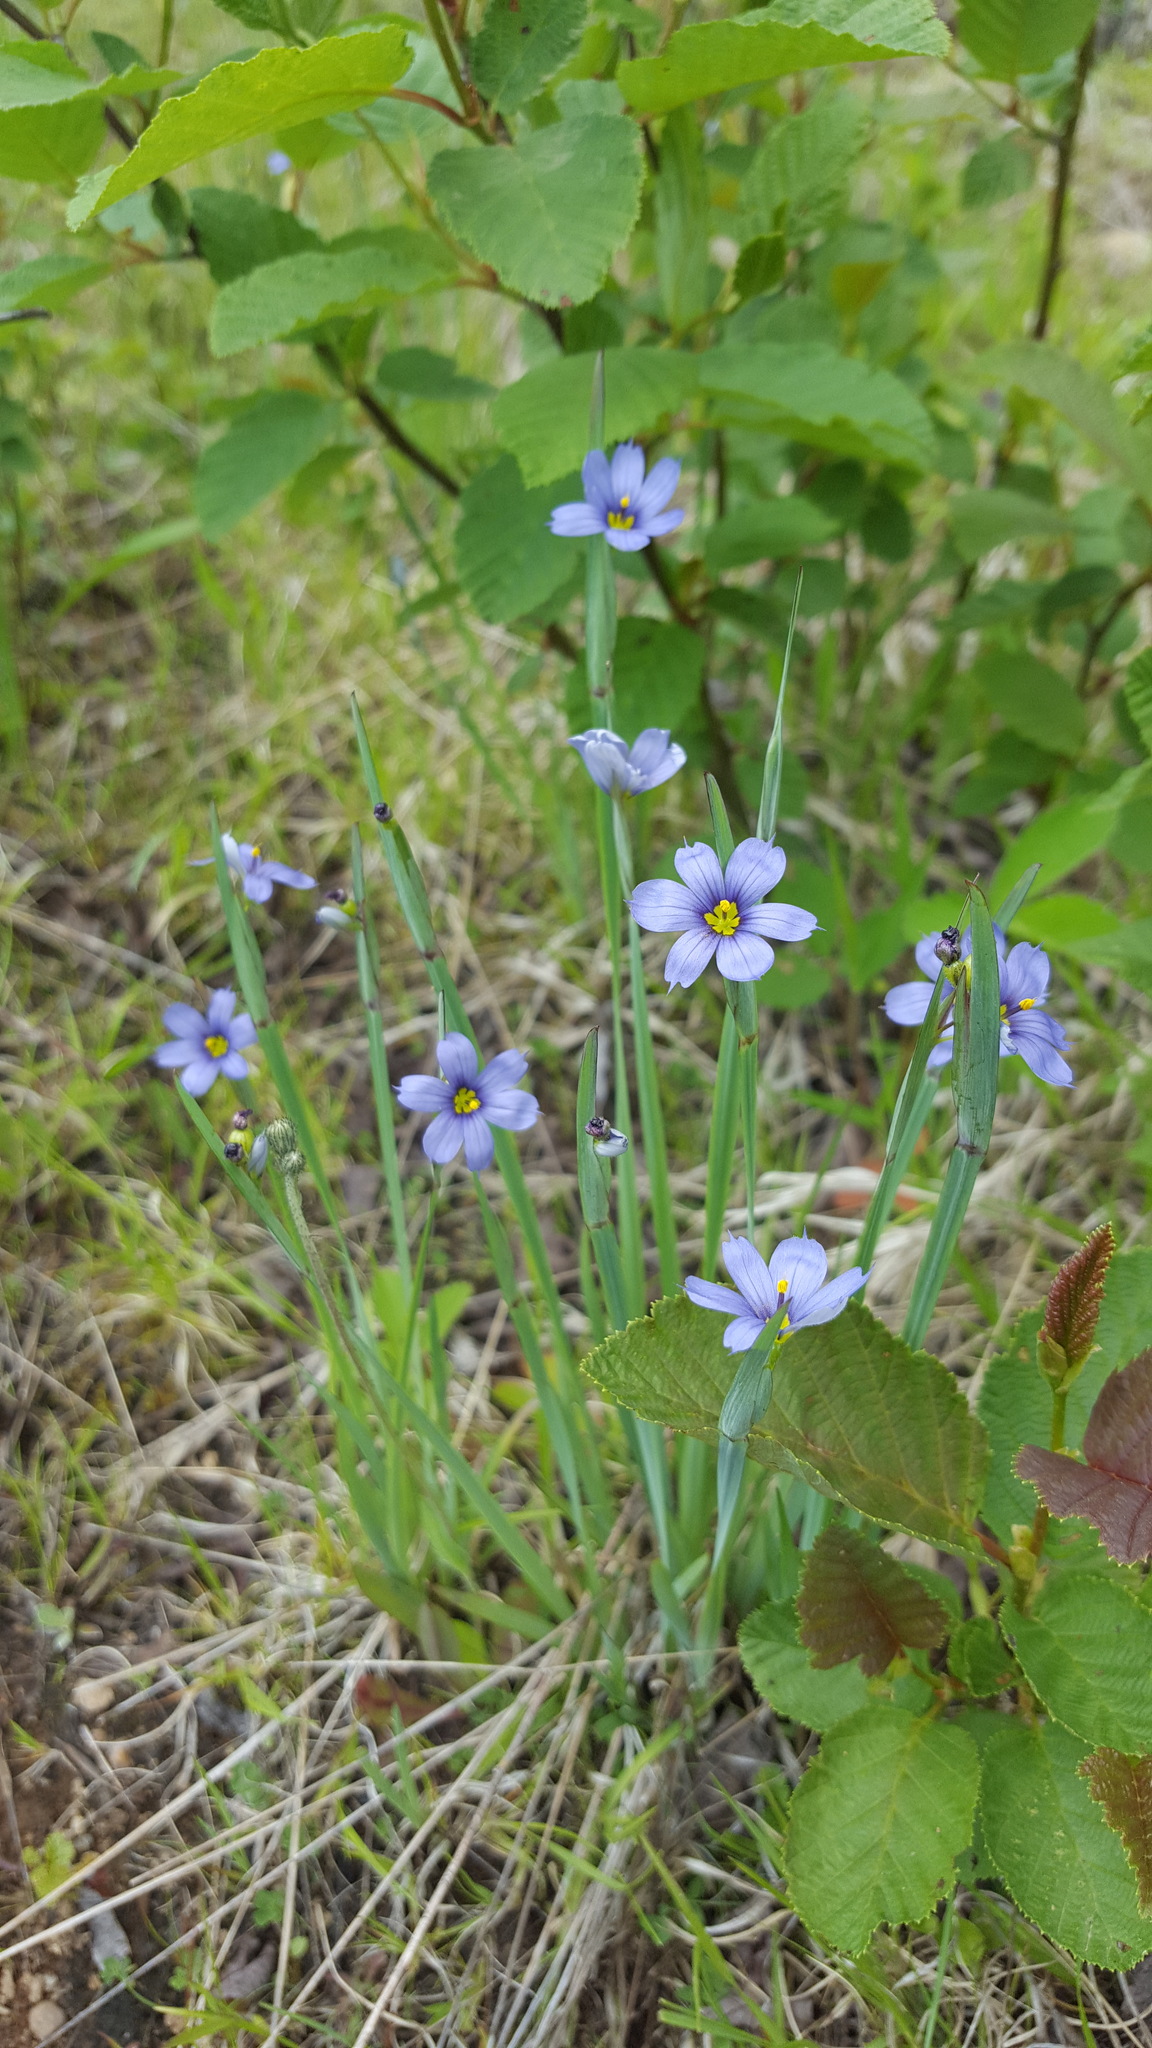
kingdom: Plantae
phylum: Tracheophyta
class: Liliopsida
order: Asparagales
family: Iridaceae
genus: Sisyrinchium
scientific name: Sisyrinchium montanum
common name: American blue-eyed-grass
